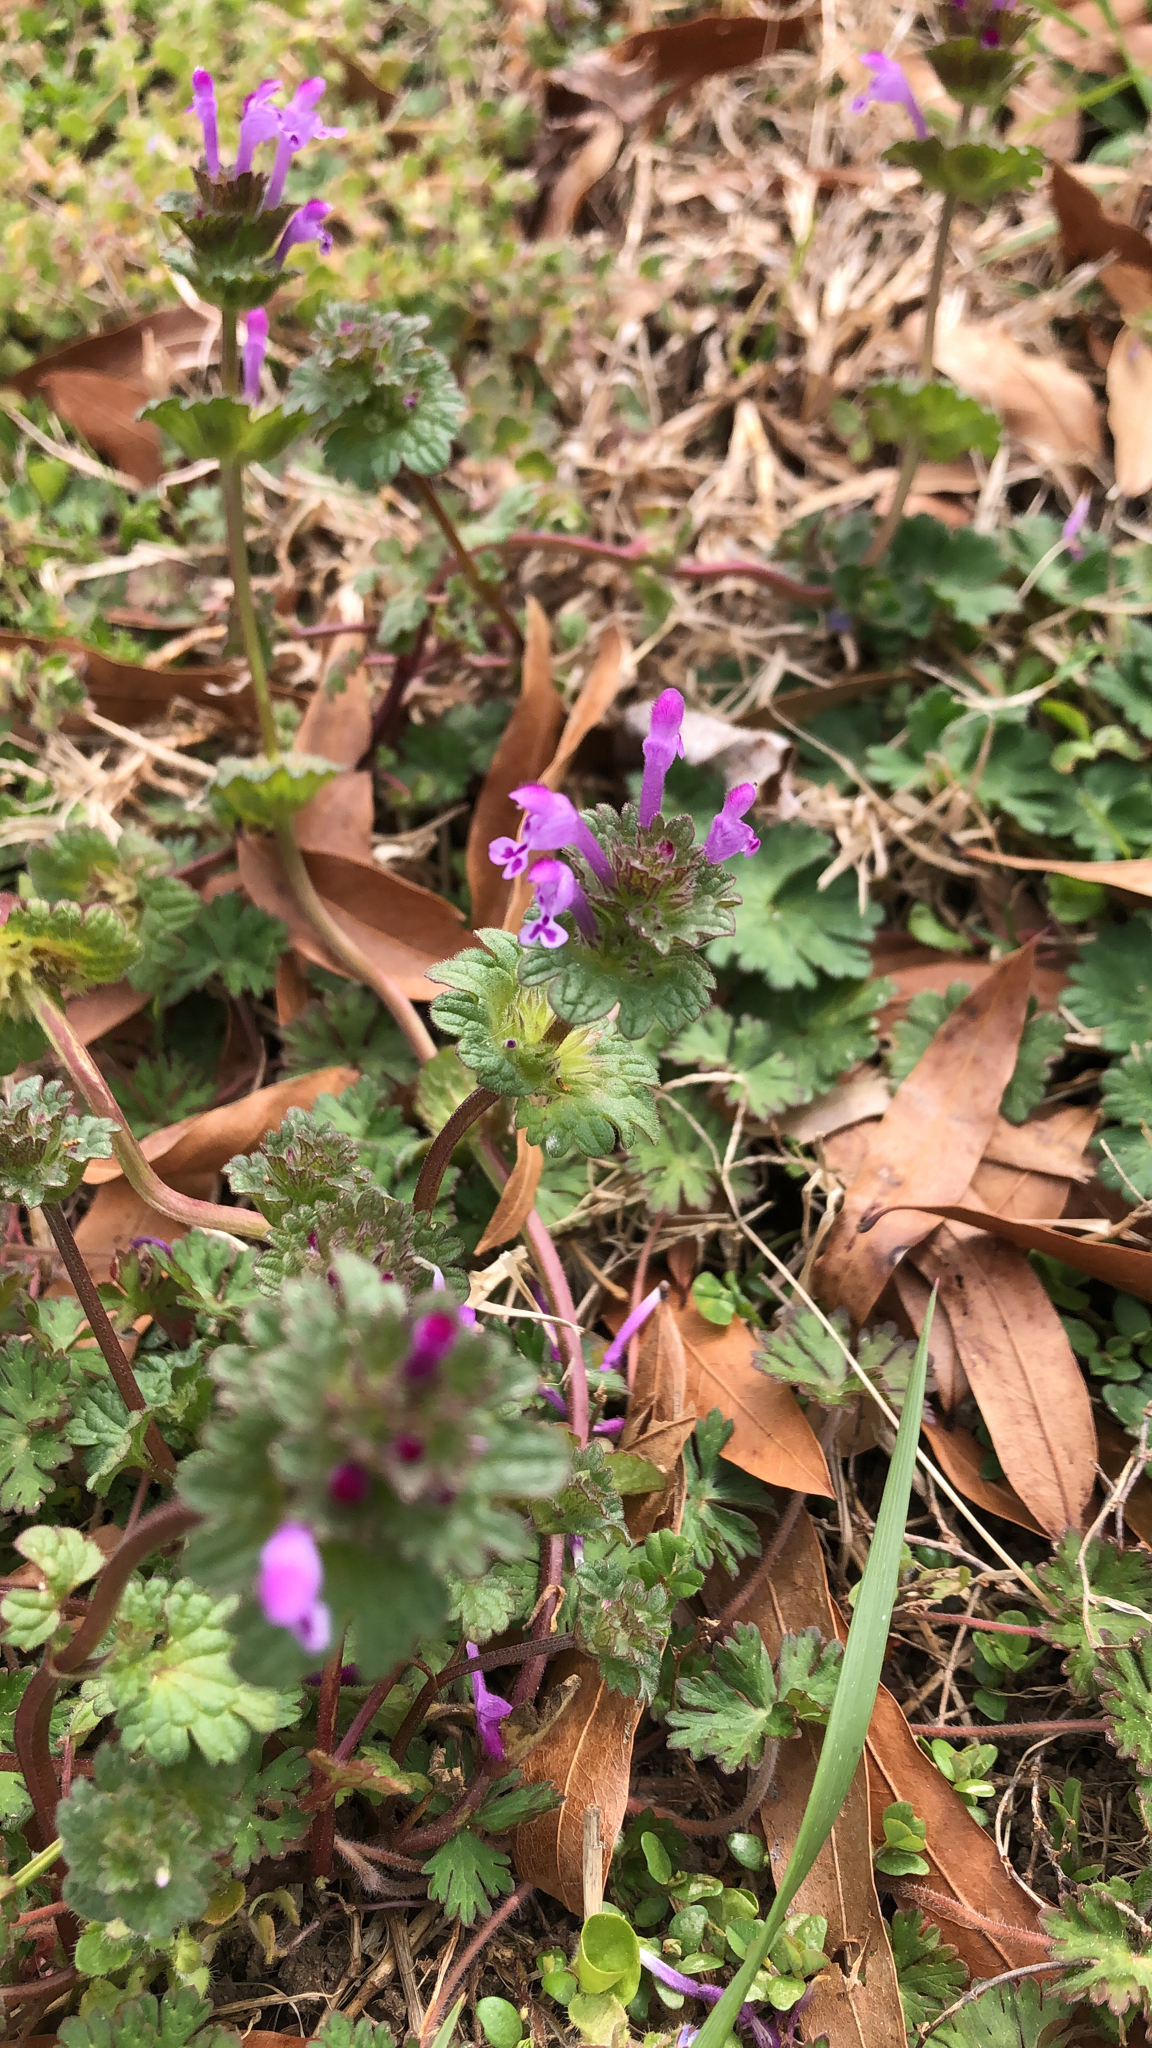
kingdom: Plantae
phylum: Tracheophyta
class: Magnoliopsida
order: Lamiales
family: Lamiaceae
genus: Lamium
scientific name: Lamium amplexicaule
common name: Henbit dead-nettle
